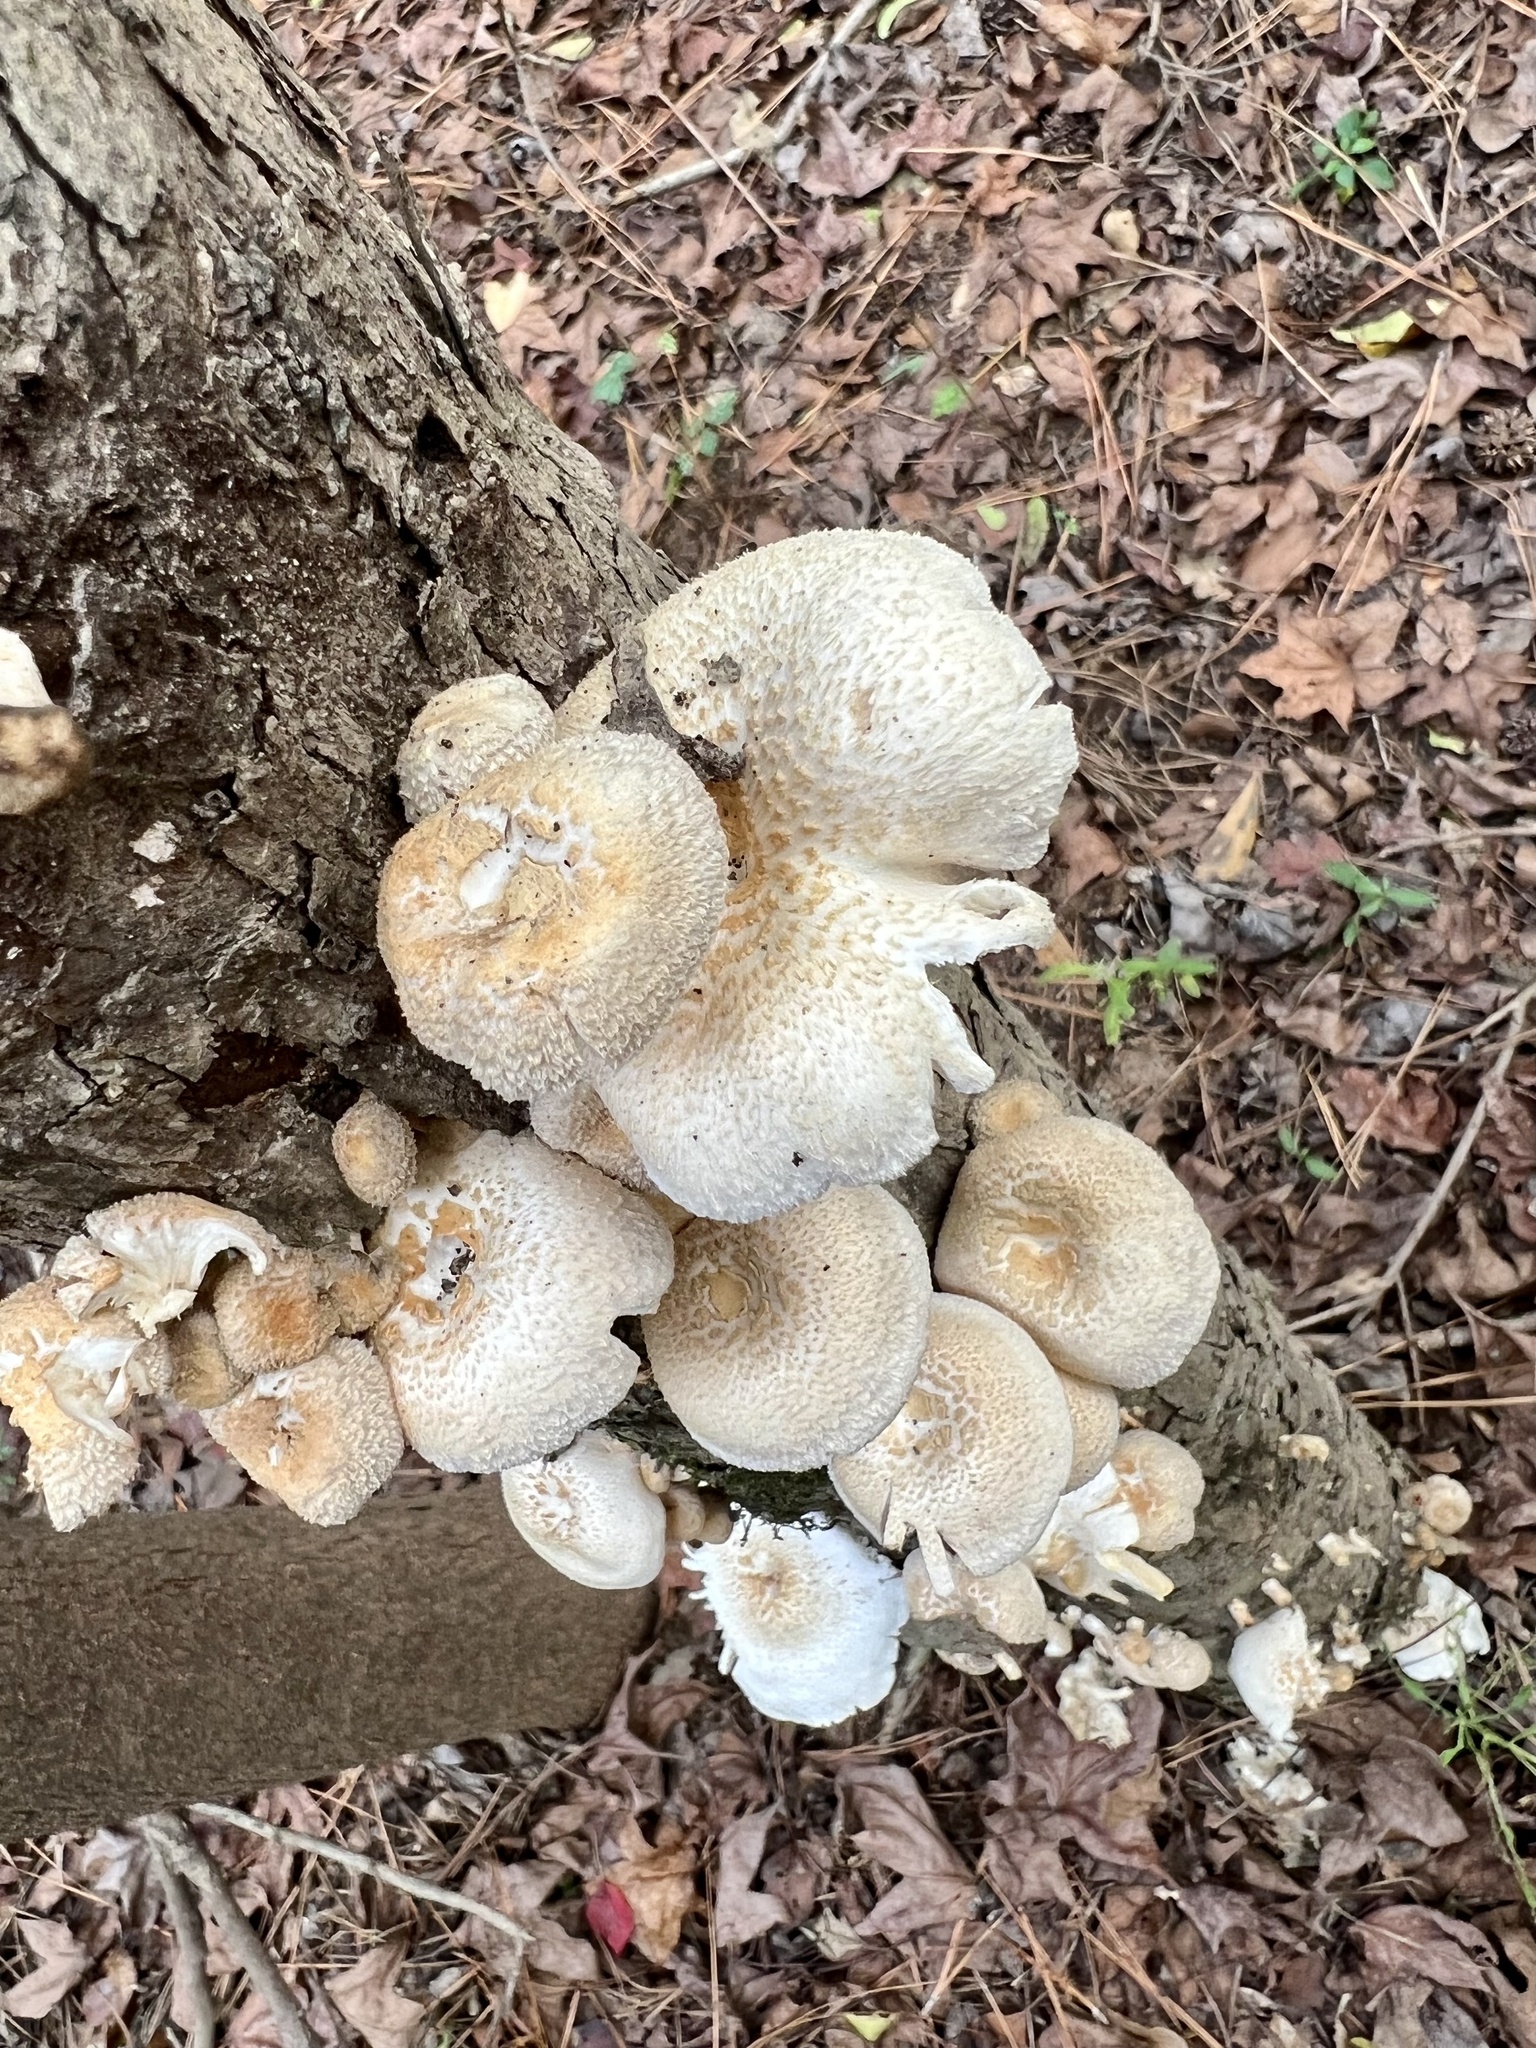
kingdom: Fungi
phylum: Basidiomycota
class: Agaricomycetes
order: Polyporales
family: Polyporaceae
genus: Lentinus
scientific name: Lentinus tigrinus
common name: Tiger sawgill
